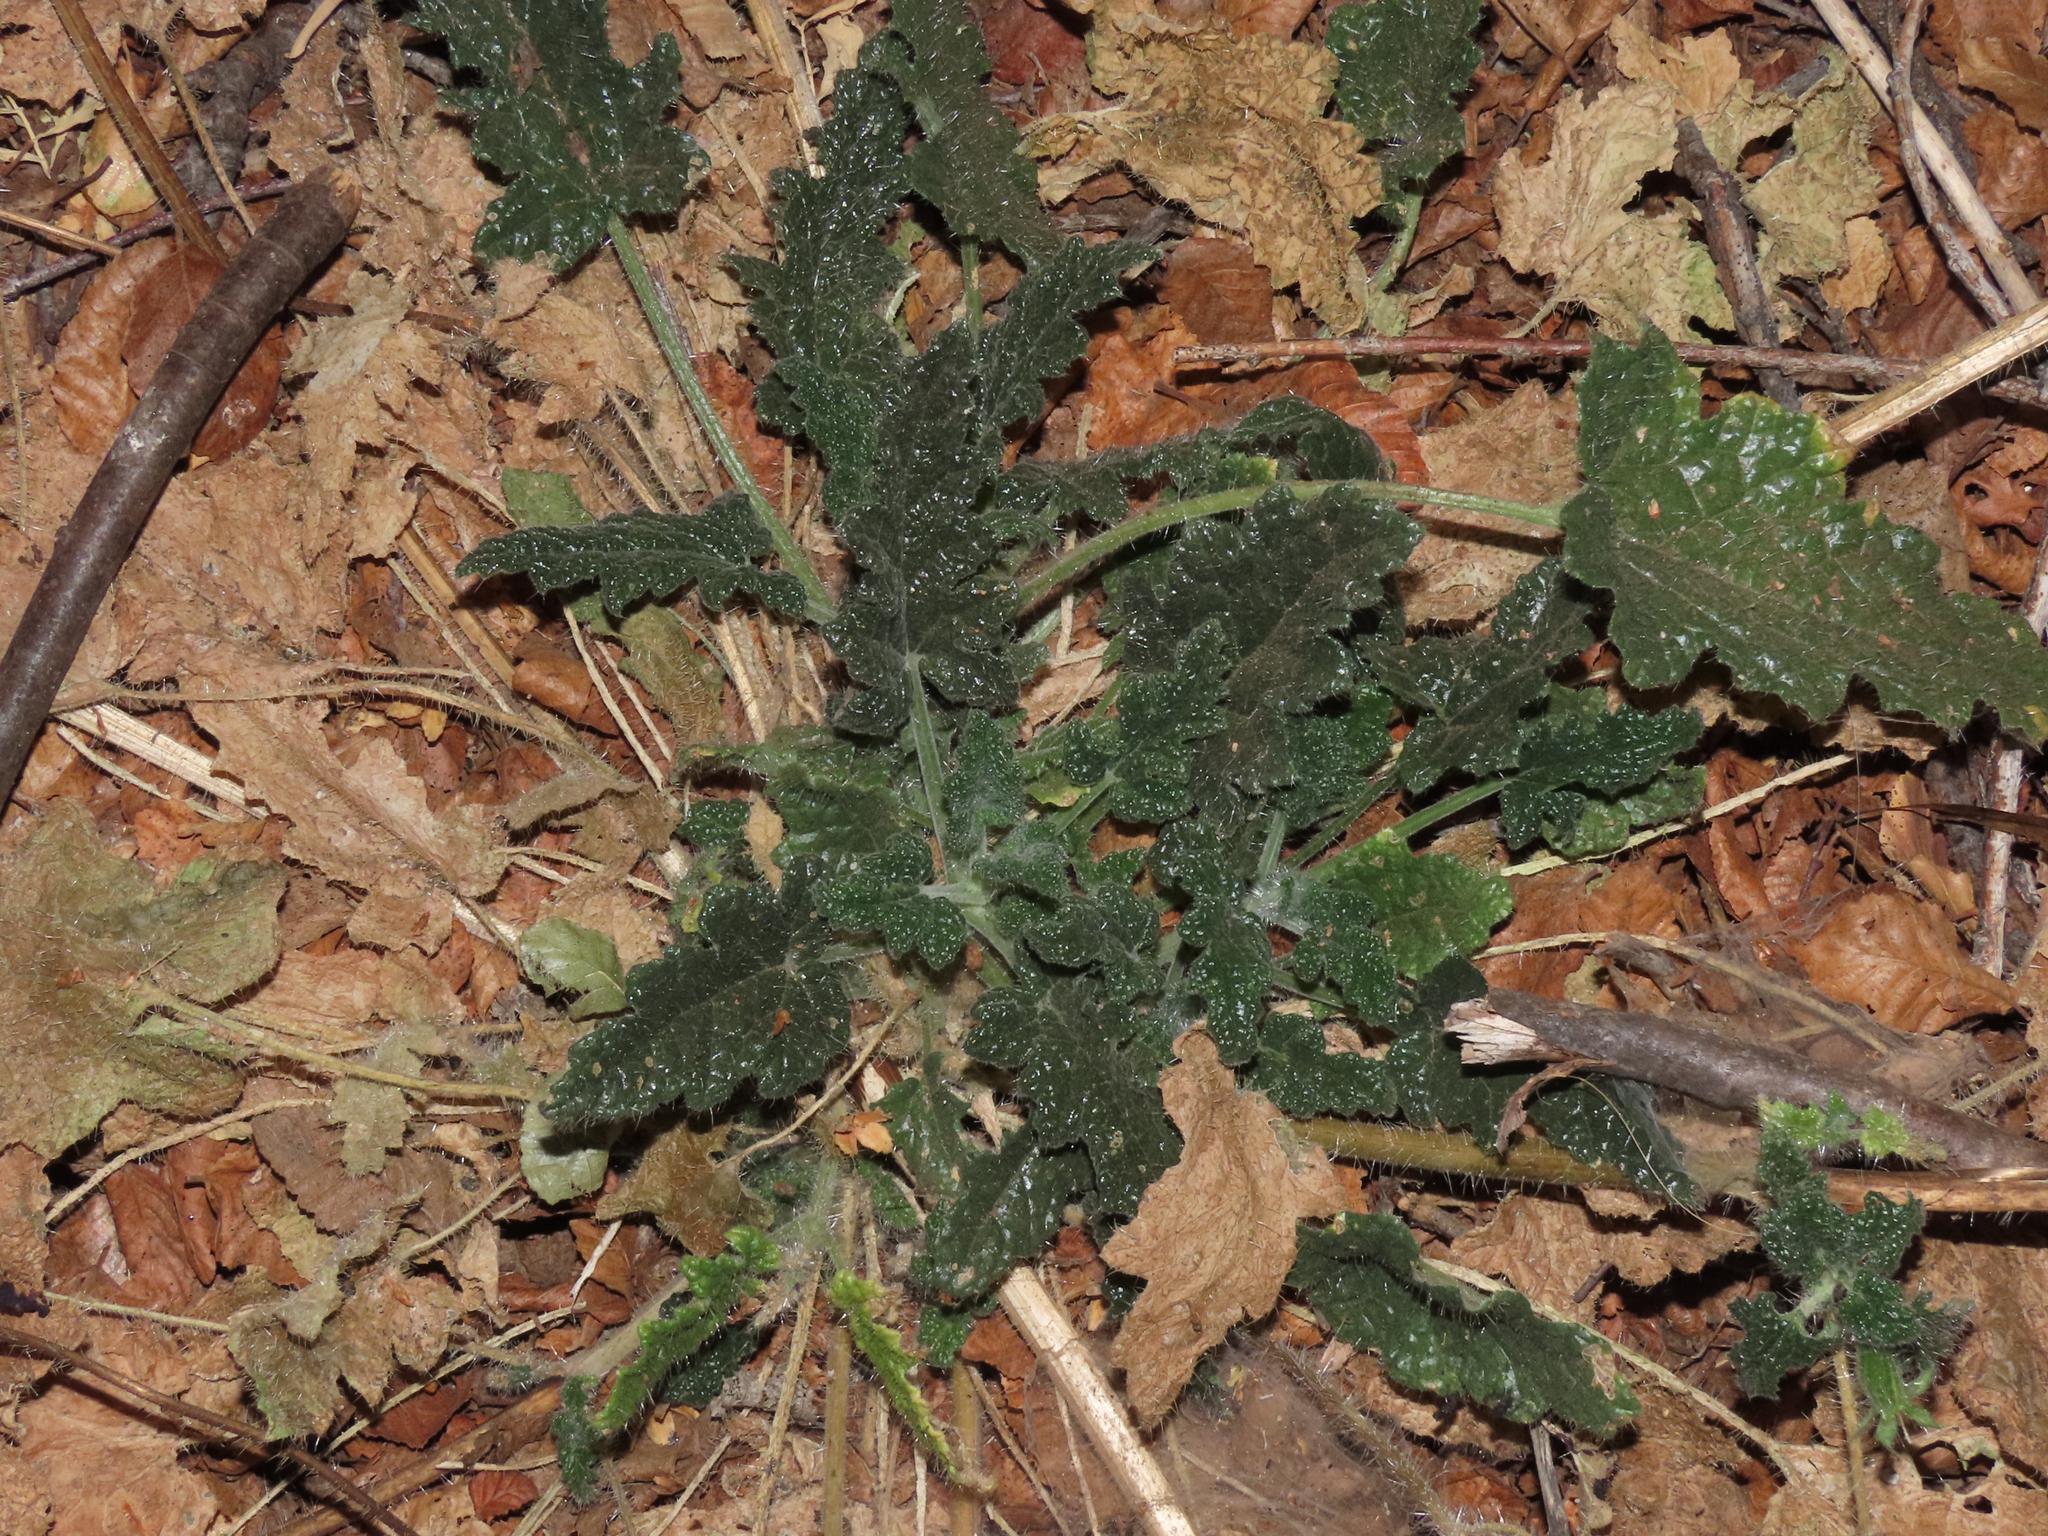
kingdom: Plantae
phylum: Tracheophyta
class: Magnoliopsida
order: Cornales
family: Loasaceae
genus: Blumenbachia
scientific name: Blumenbachia sylvestris
